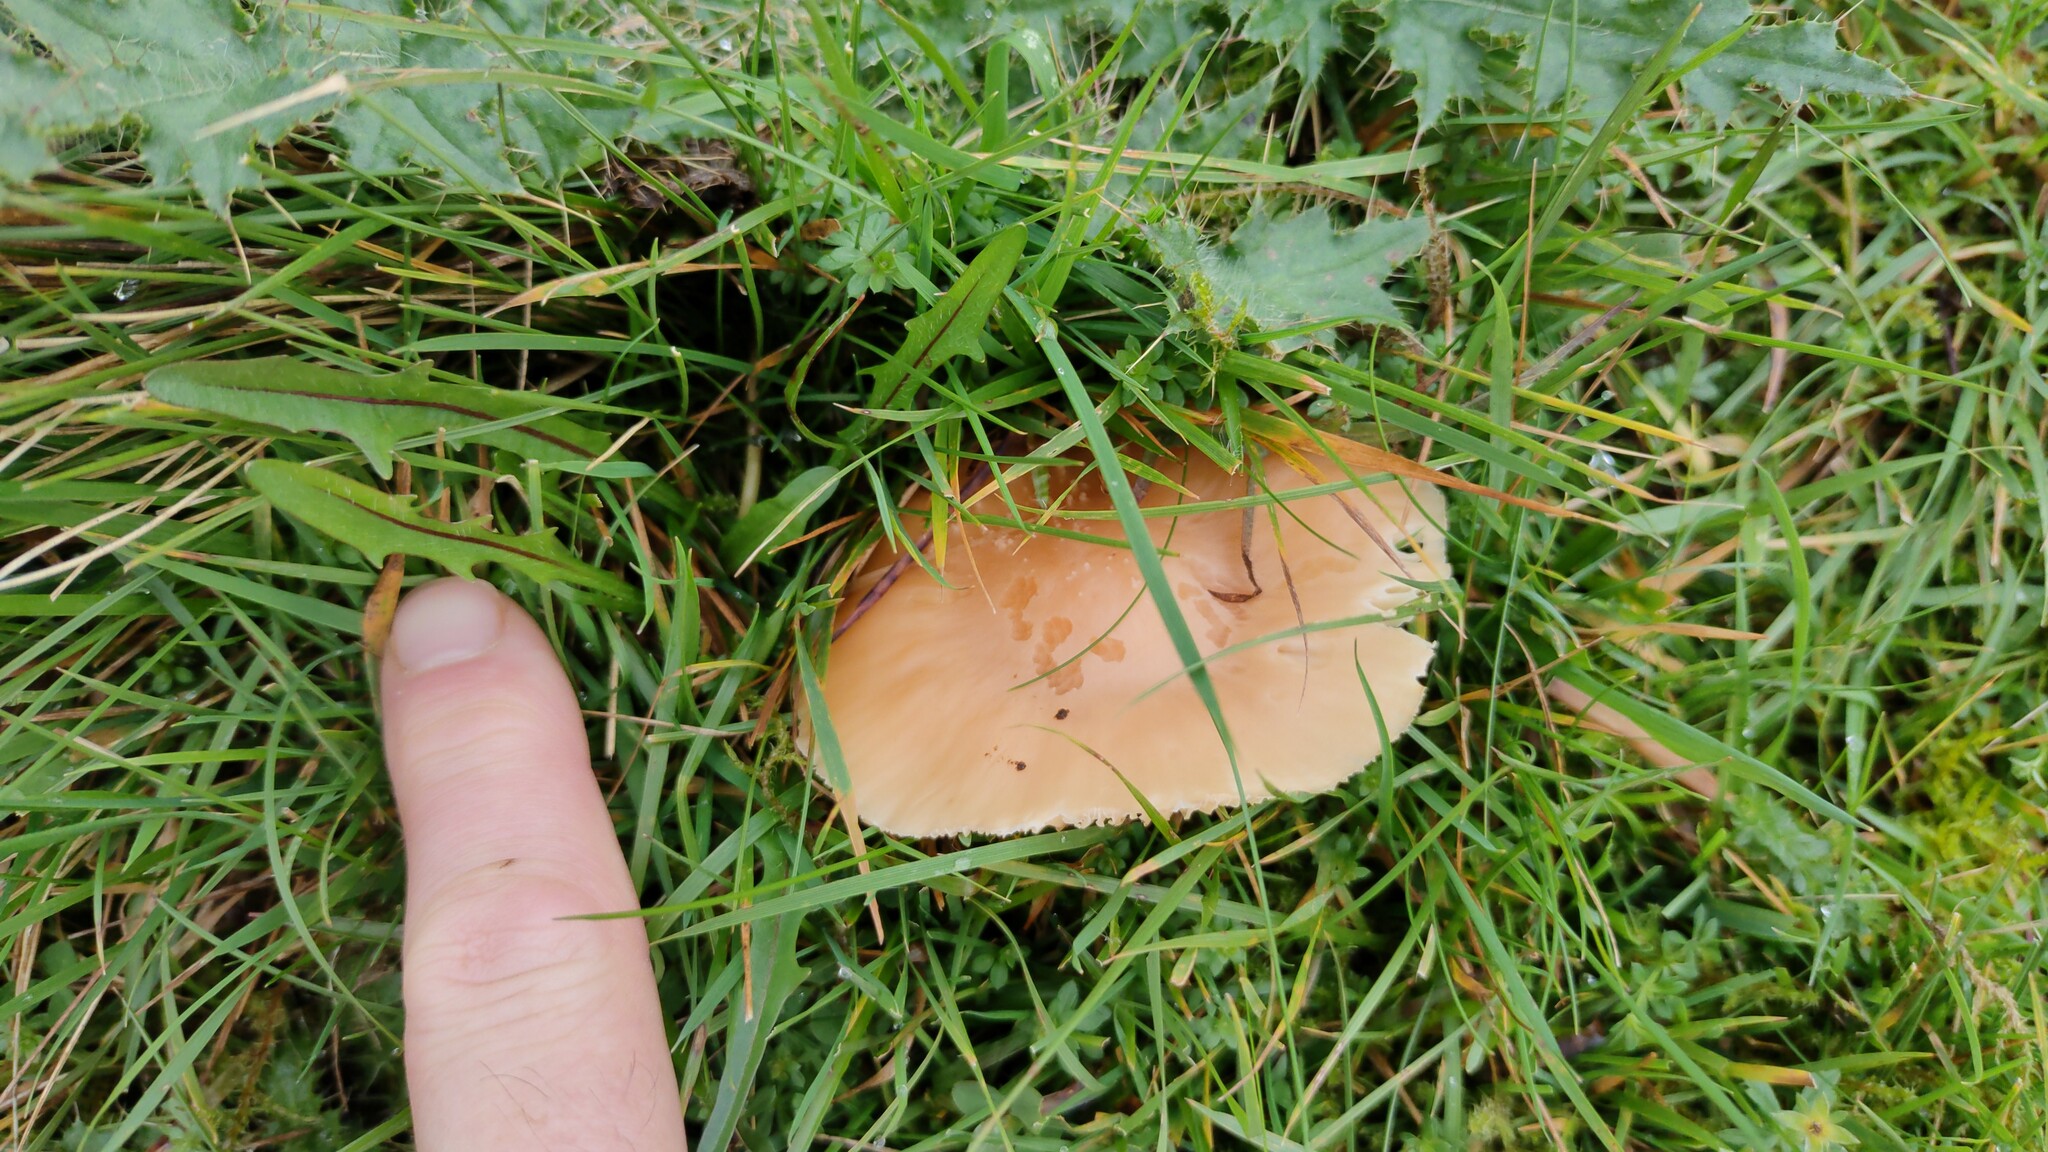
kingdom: Fungi
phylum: Basidiomycota
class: Agaricomycetes
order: Agaricales
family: Hygrophoraceae
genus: Cuphophyllus
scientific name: Cuphophyllus pratensis
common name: Meadow waxcap
